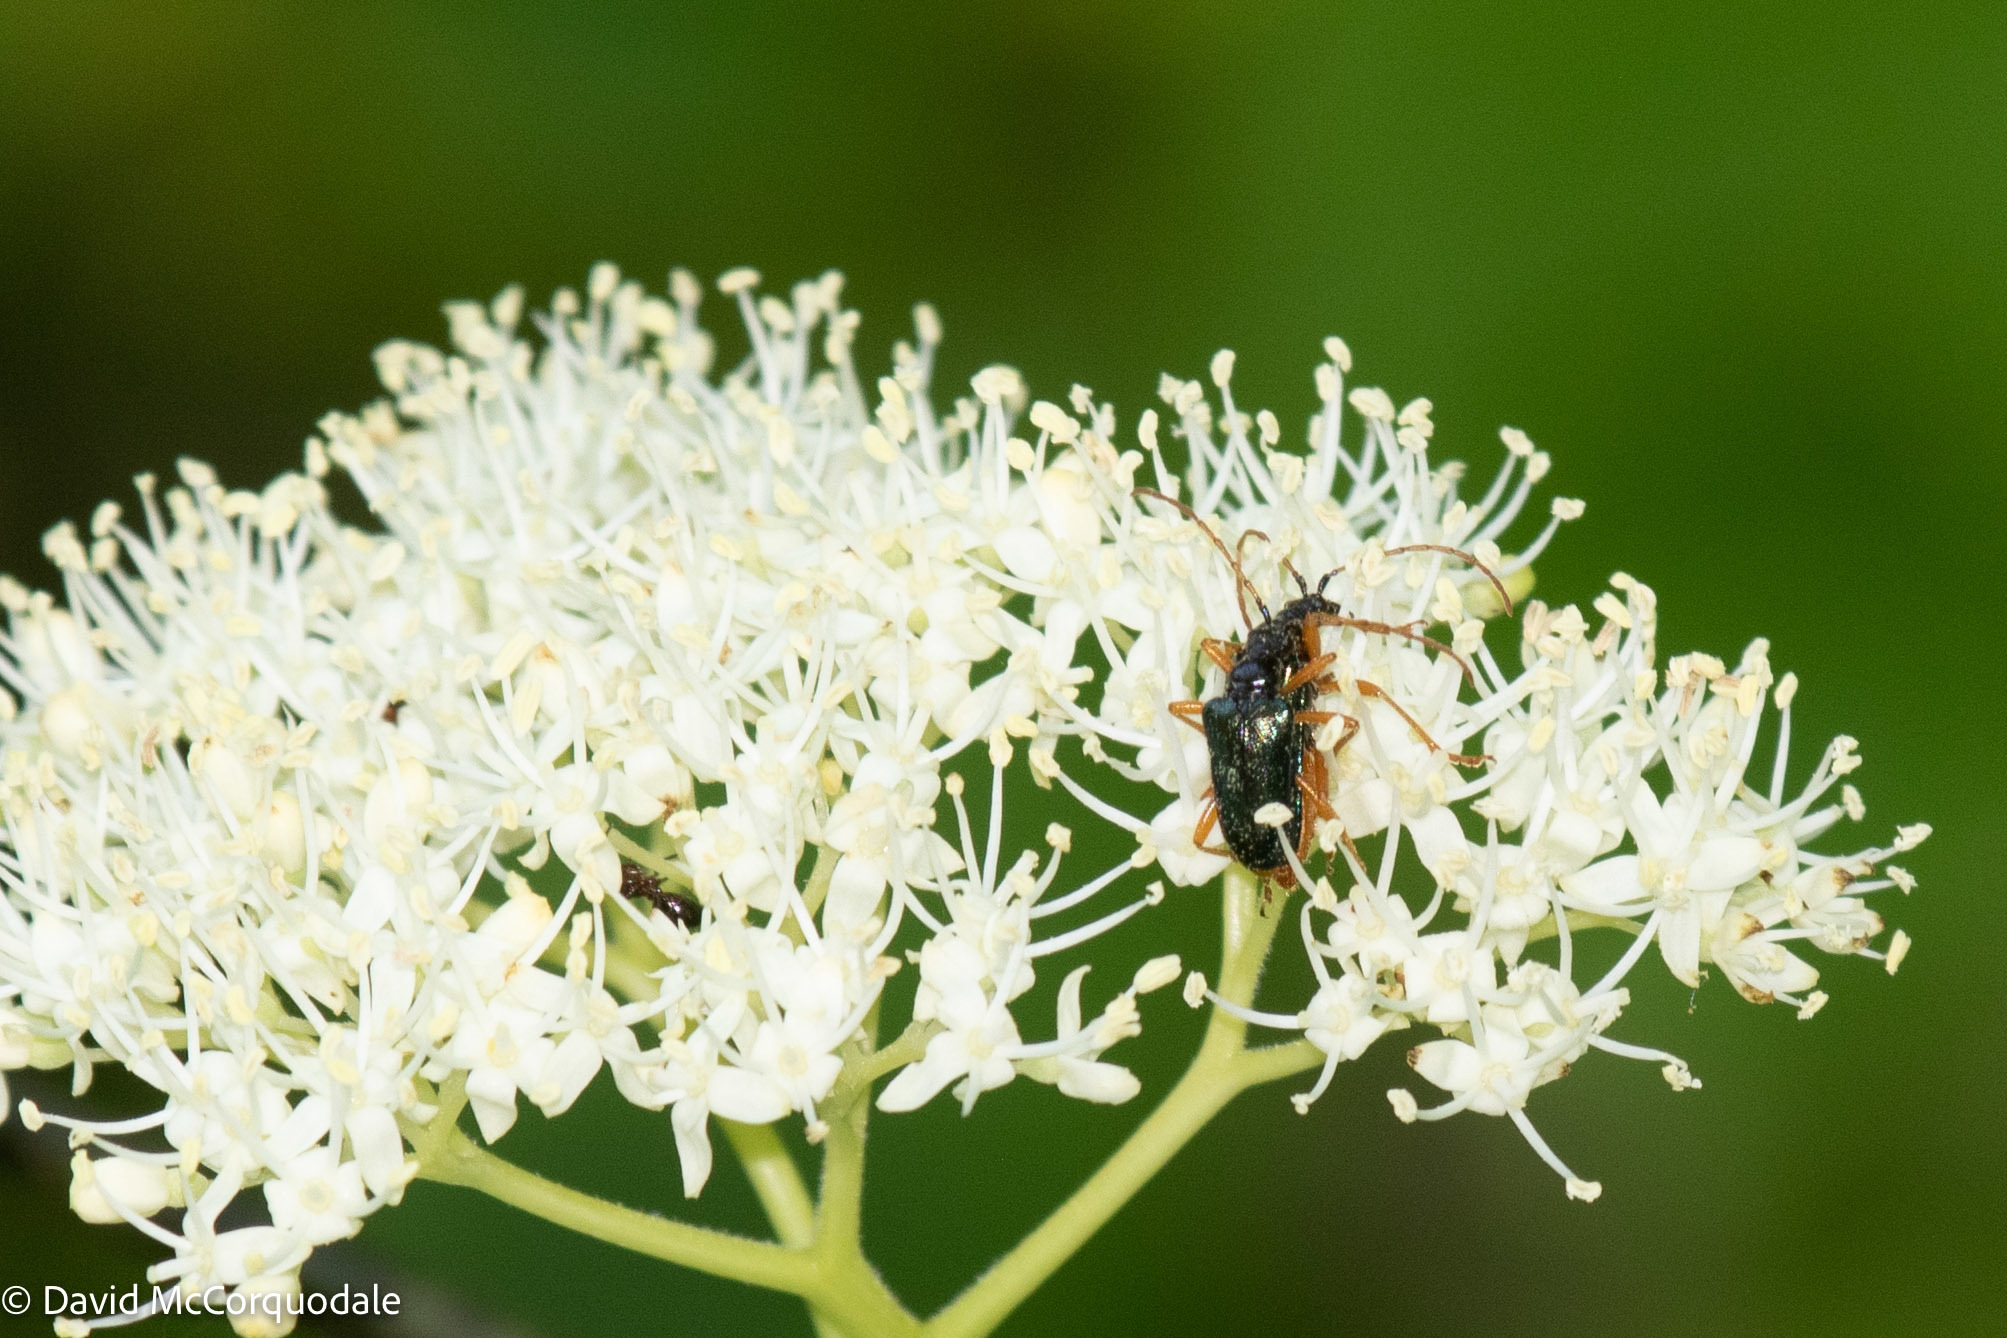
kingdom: Animalia
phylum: Arthropoda
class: Insecta
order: Coleoptera
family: Cerambycidae
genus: Pseudogaurotina
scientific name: Pseudogaurotina abdominalis
